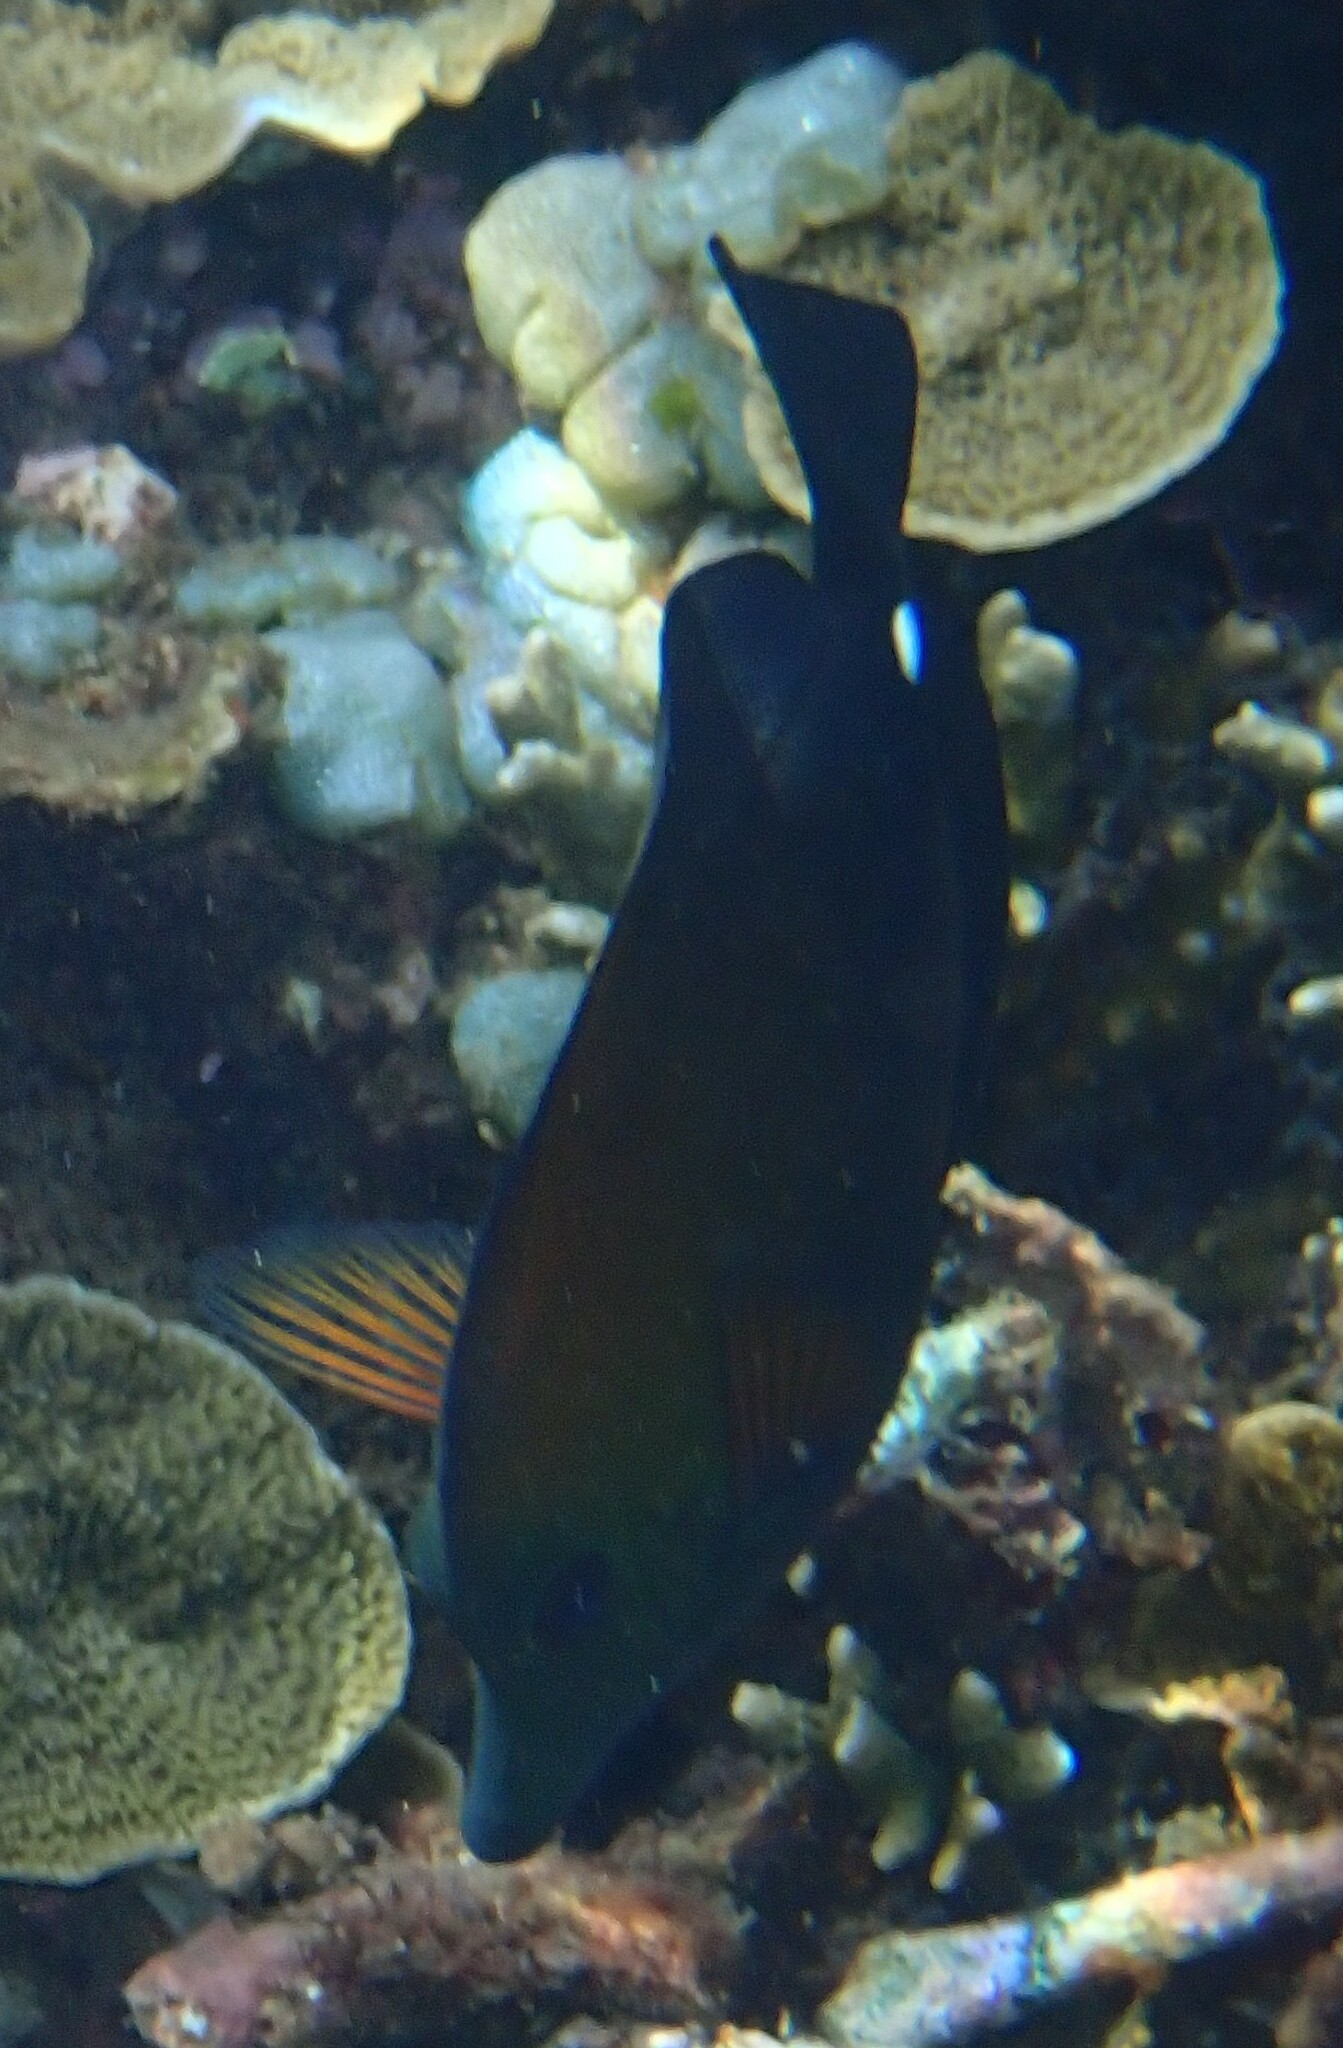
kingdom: Animalia
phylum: Chordata
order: Perciformes
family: Acanthuridae
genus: Zebrasoma
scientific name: Zebrasoma scopas
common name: Twotone tang
